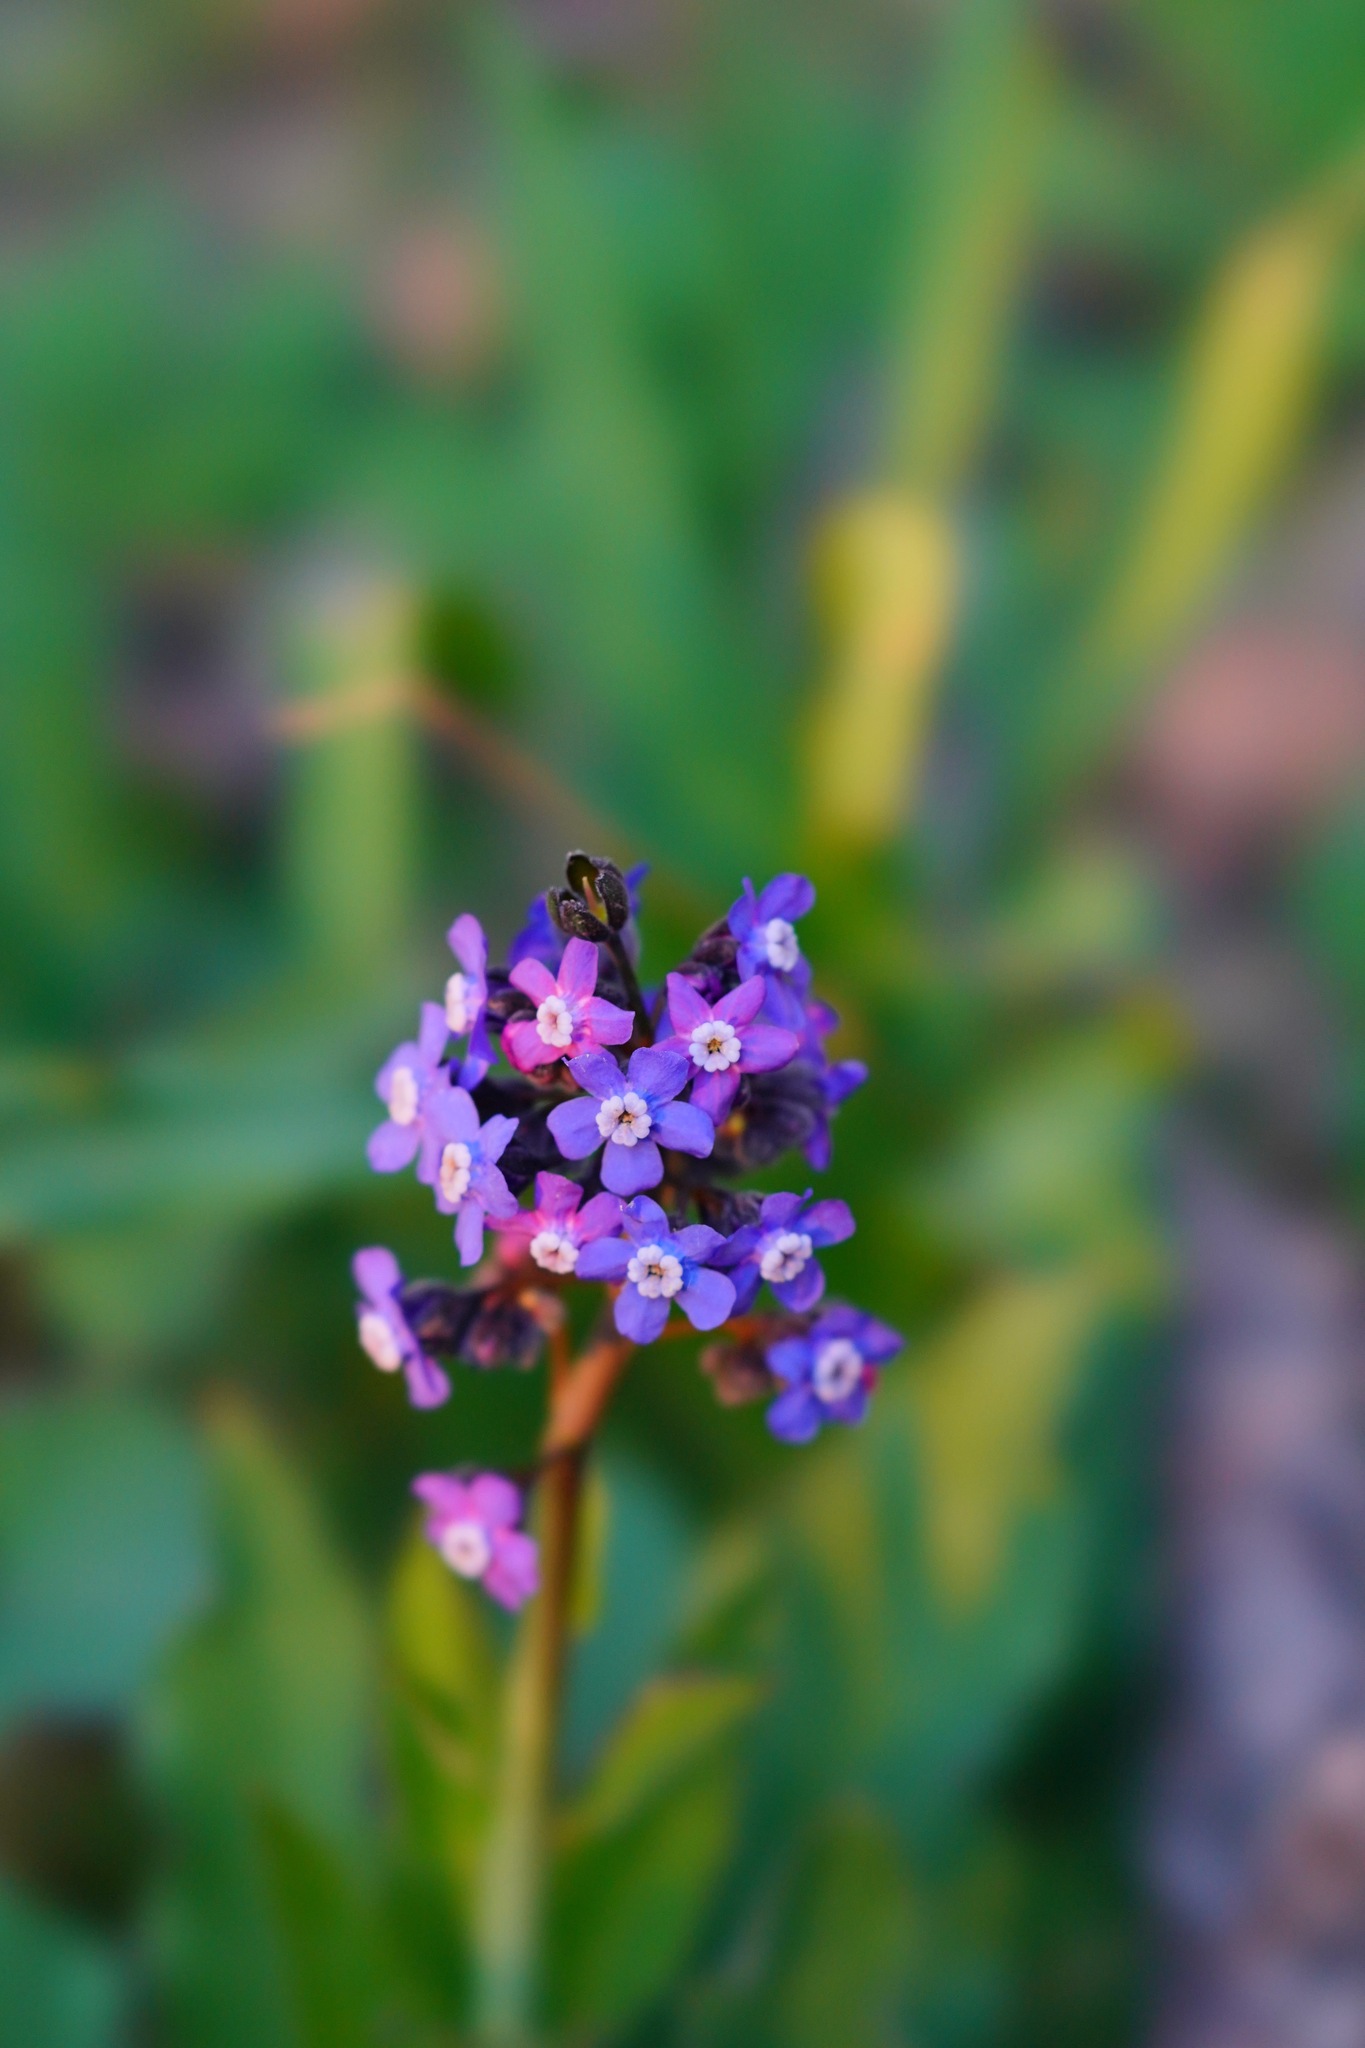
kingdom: Plantae
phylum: Tracheophyta
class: Magnoliopsida
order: Boraginales
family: Boraginaceae
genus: Adelinia
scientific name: Adelinia grande
